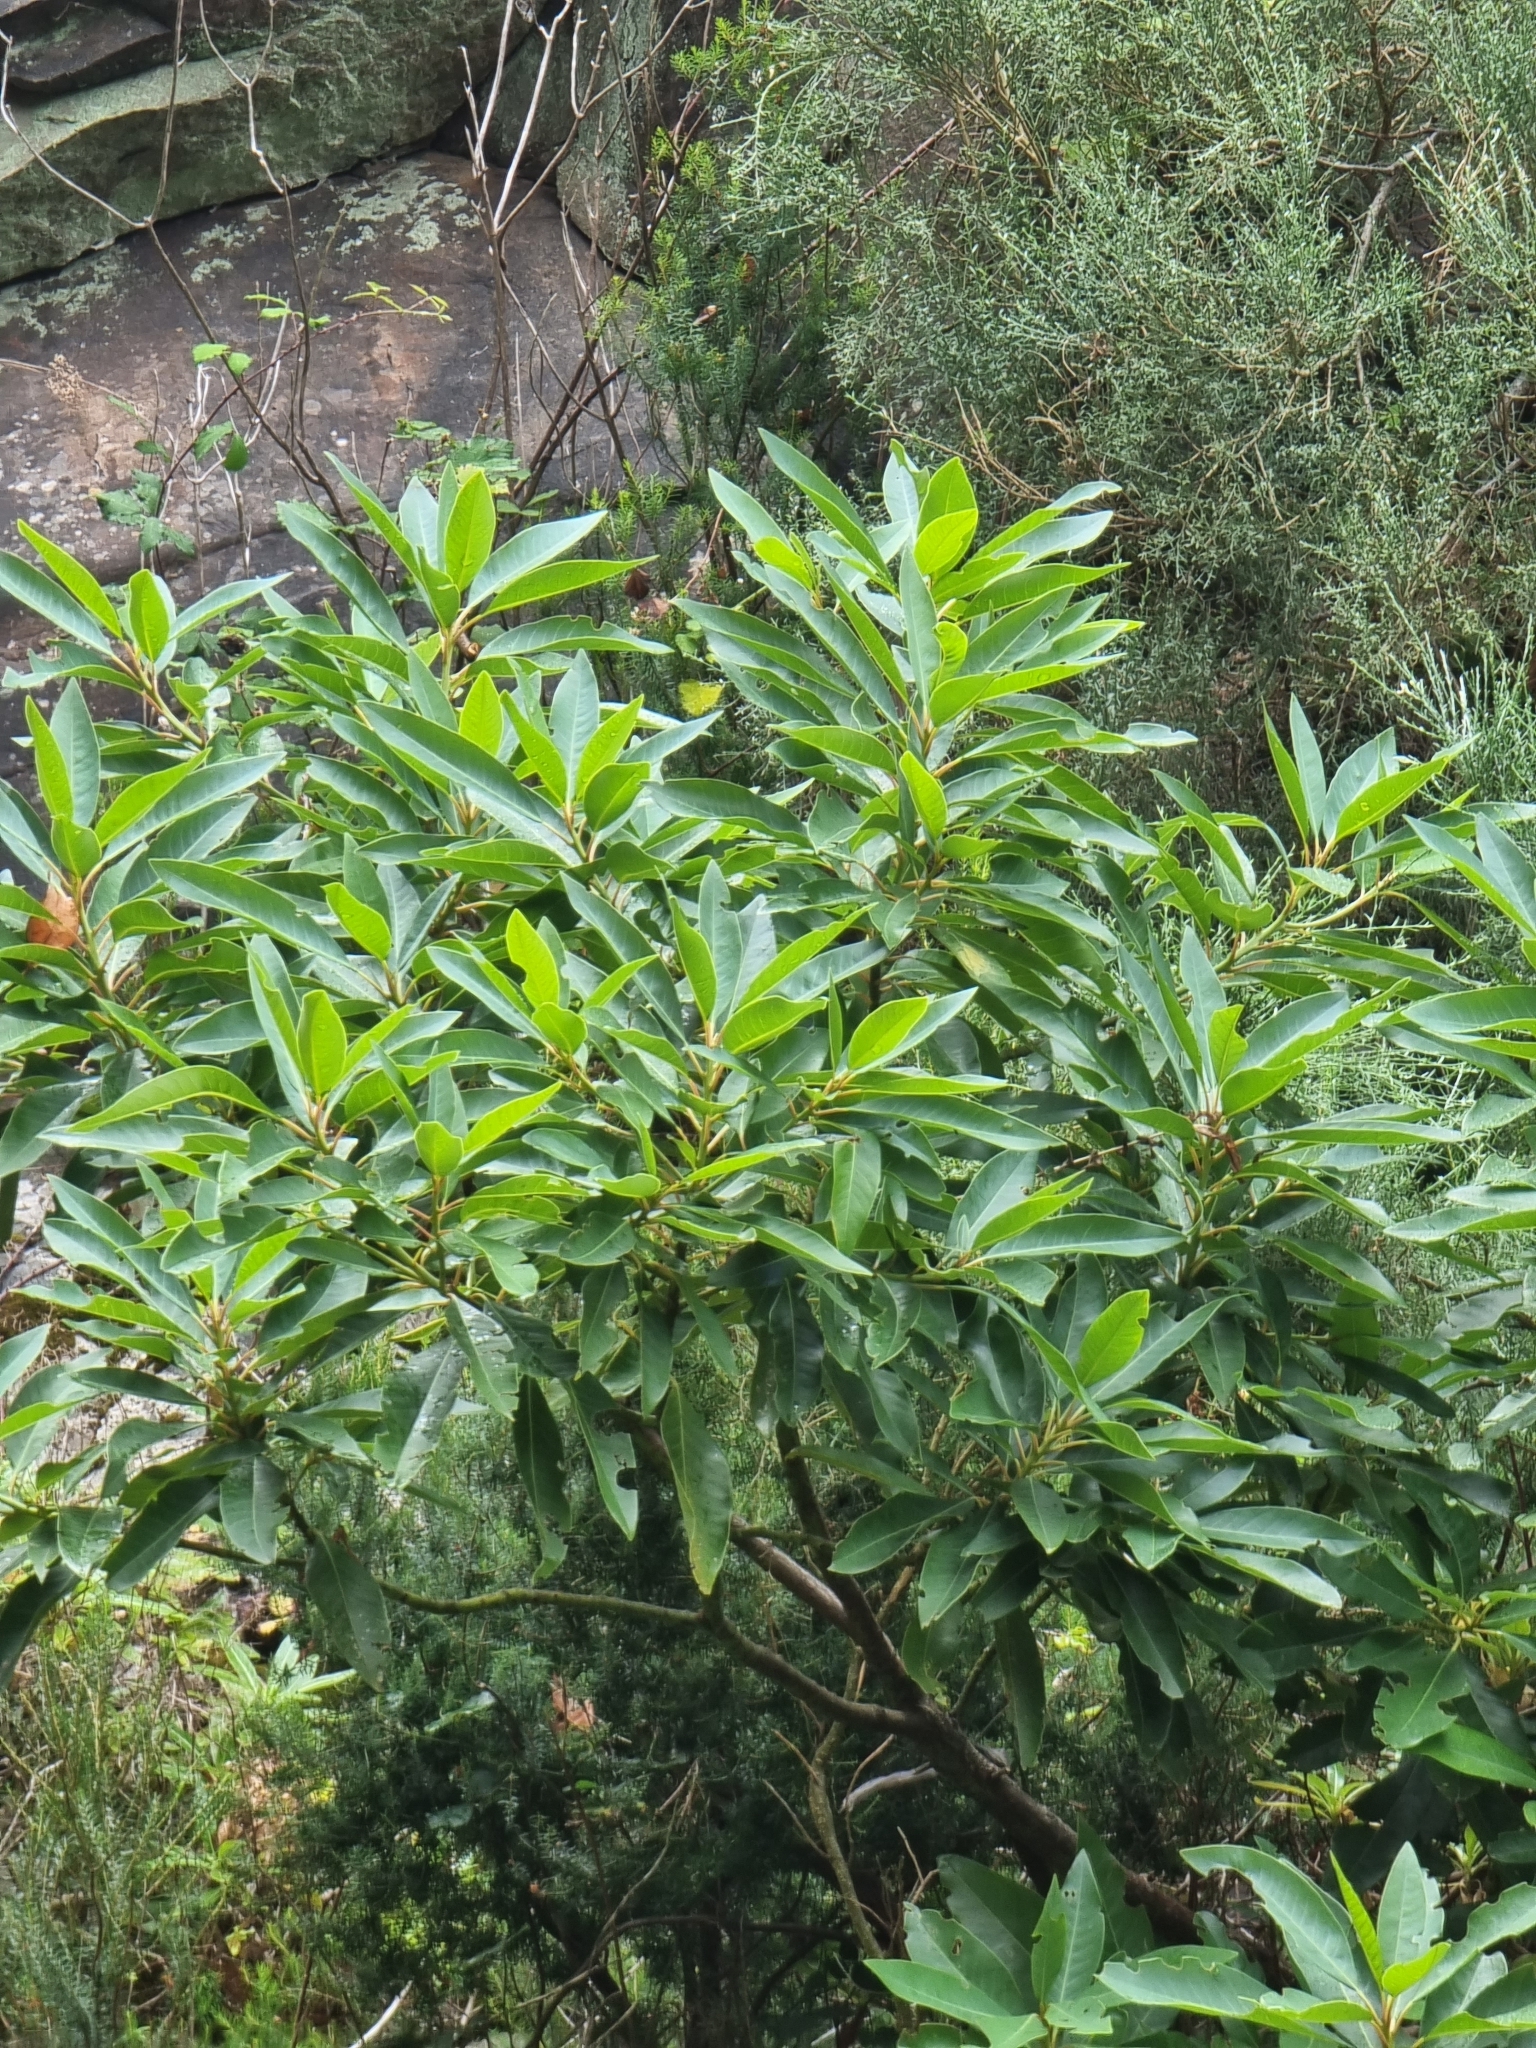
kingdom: Plantae
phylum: Tracheophyta
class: Magnoliopsida
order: Laurales
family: Lauraceae
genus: Persea
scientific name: Persea indica
